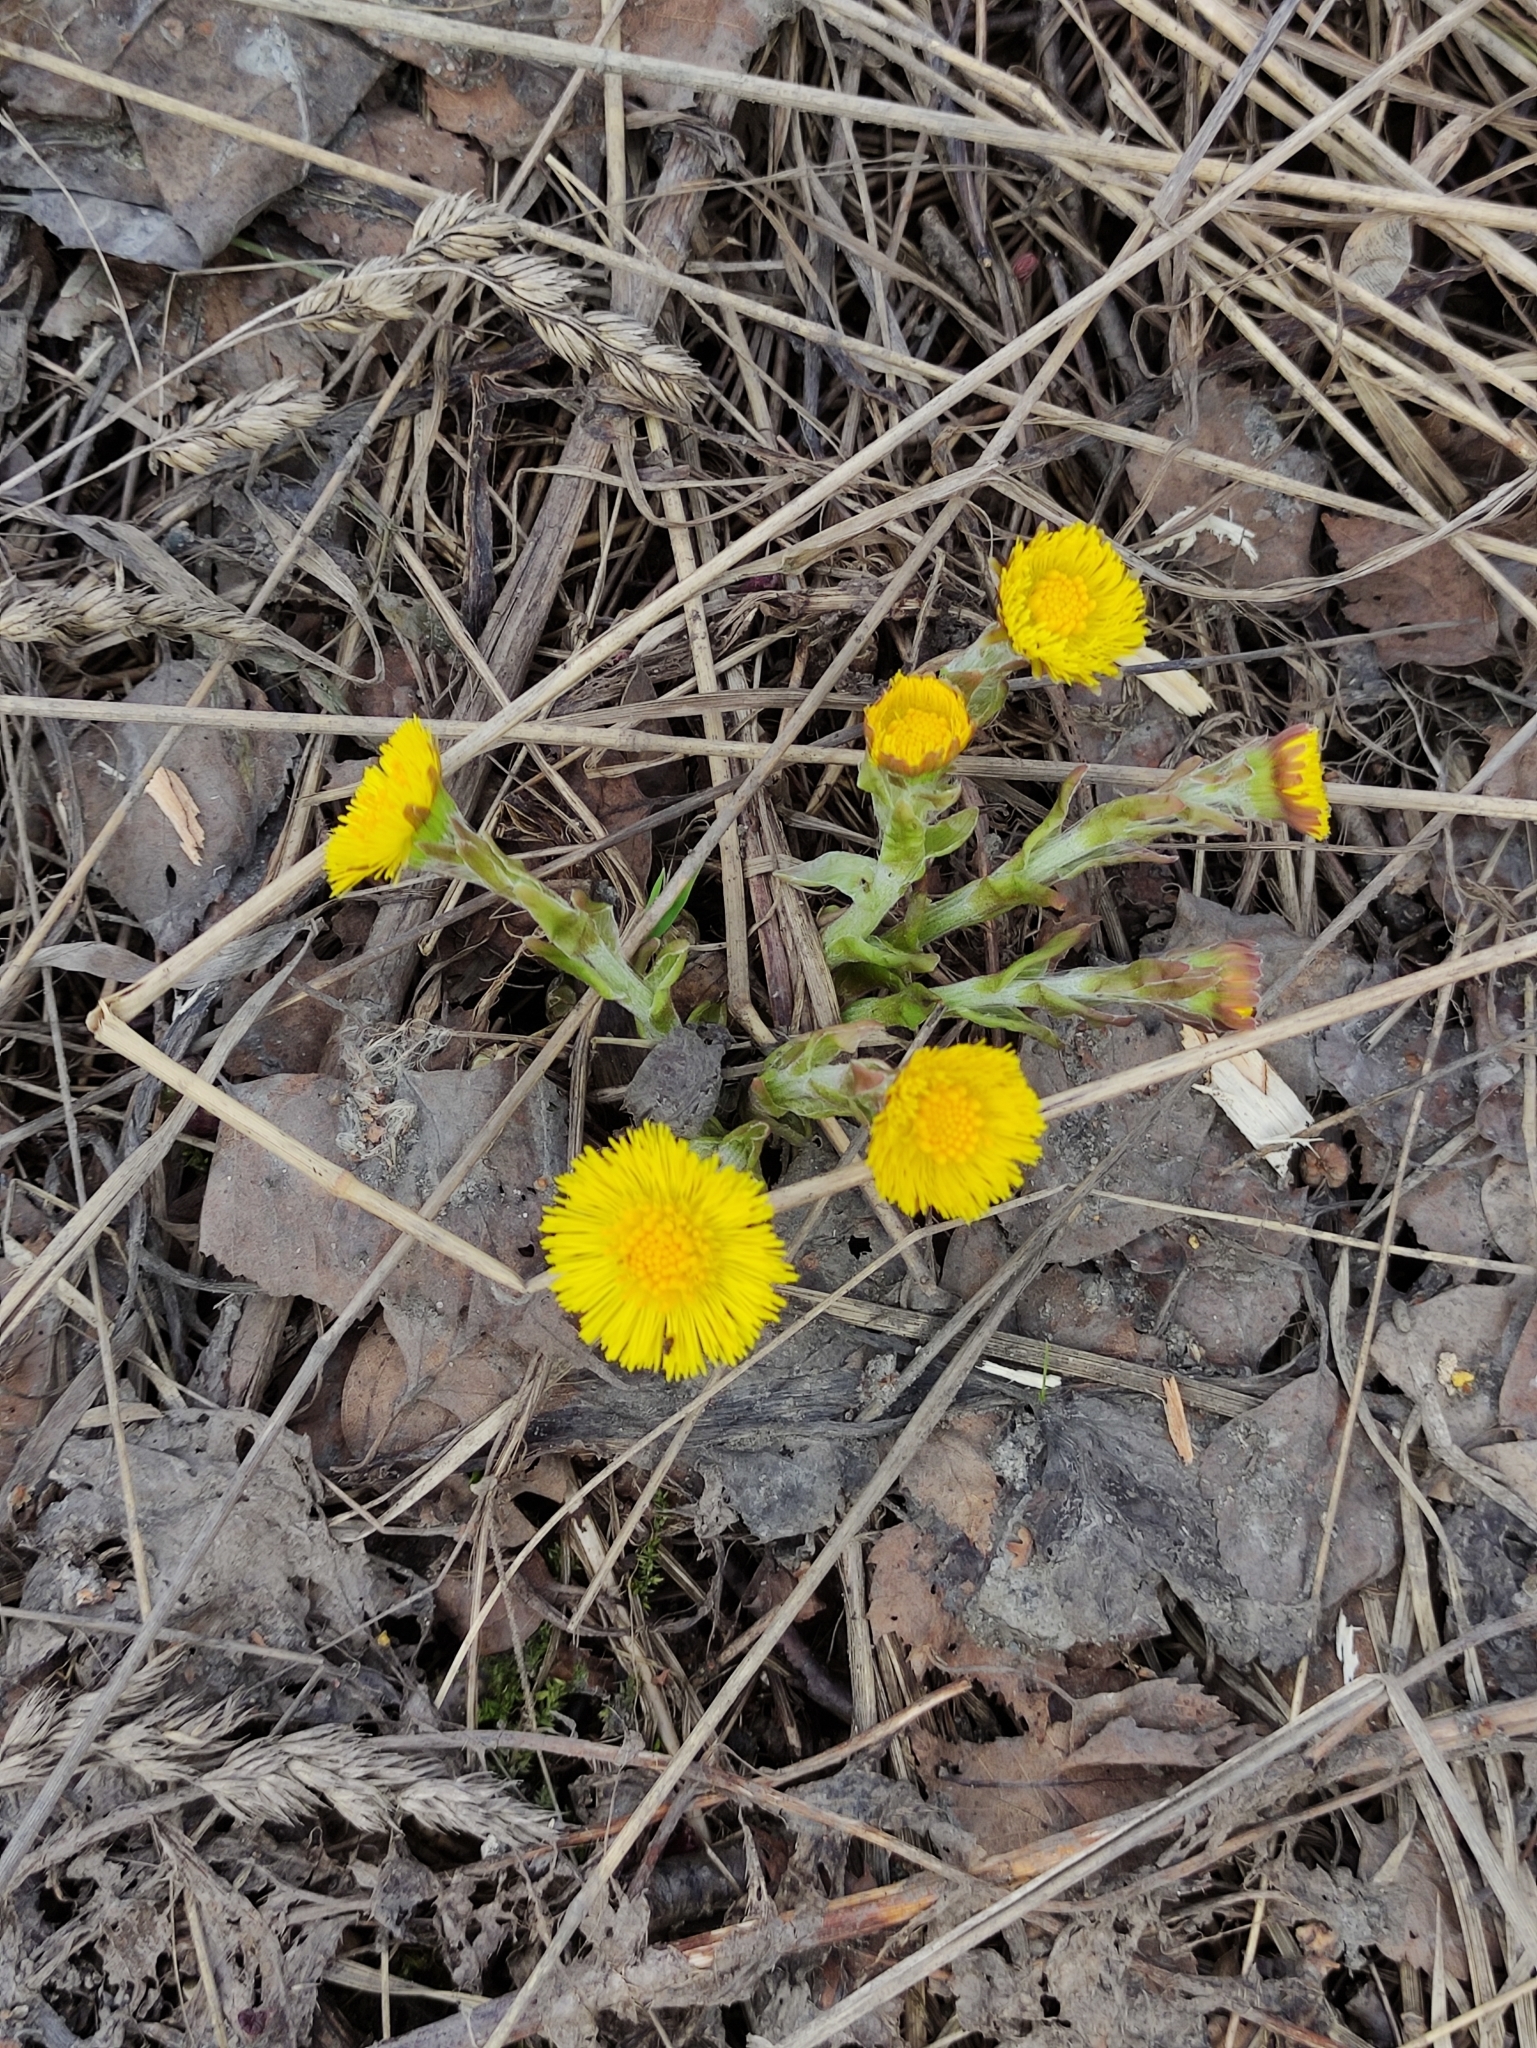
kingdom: Plantae
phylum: Tracheophyta
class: Magnoliopsida
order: Asterales
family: Asteraceae
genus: Tussilago
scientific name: Tussilago farfara
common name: Coltsfoot
